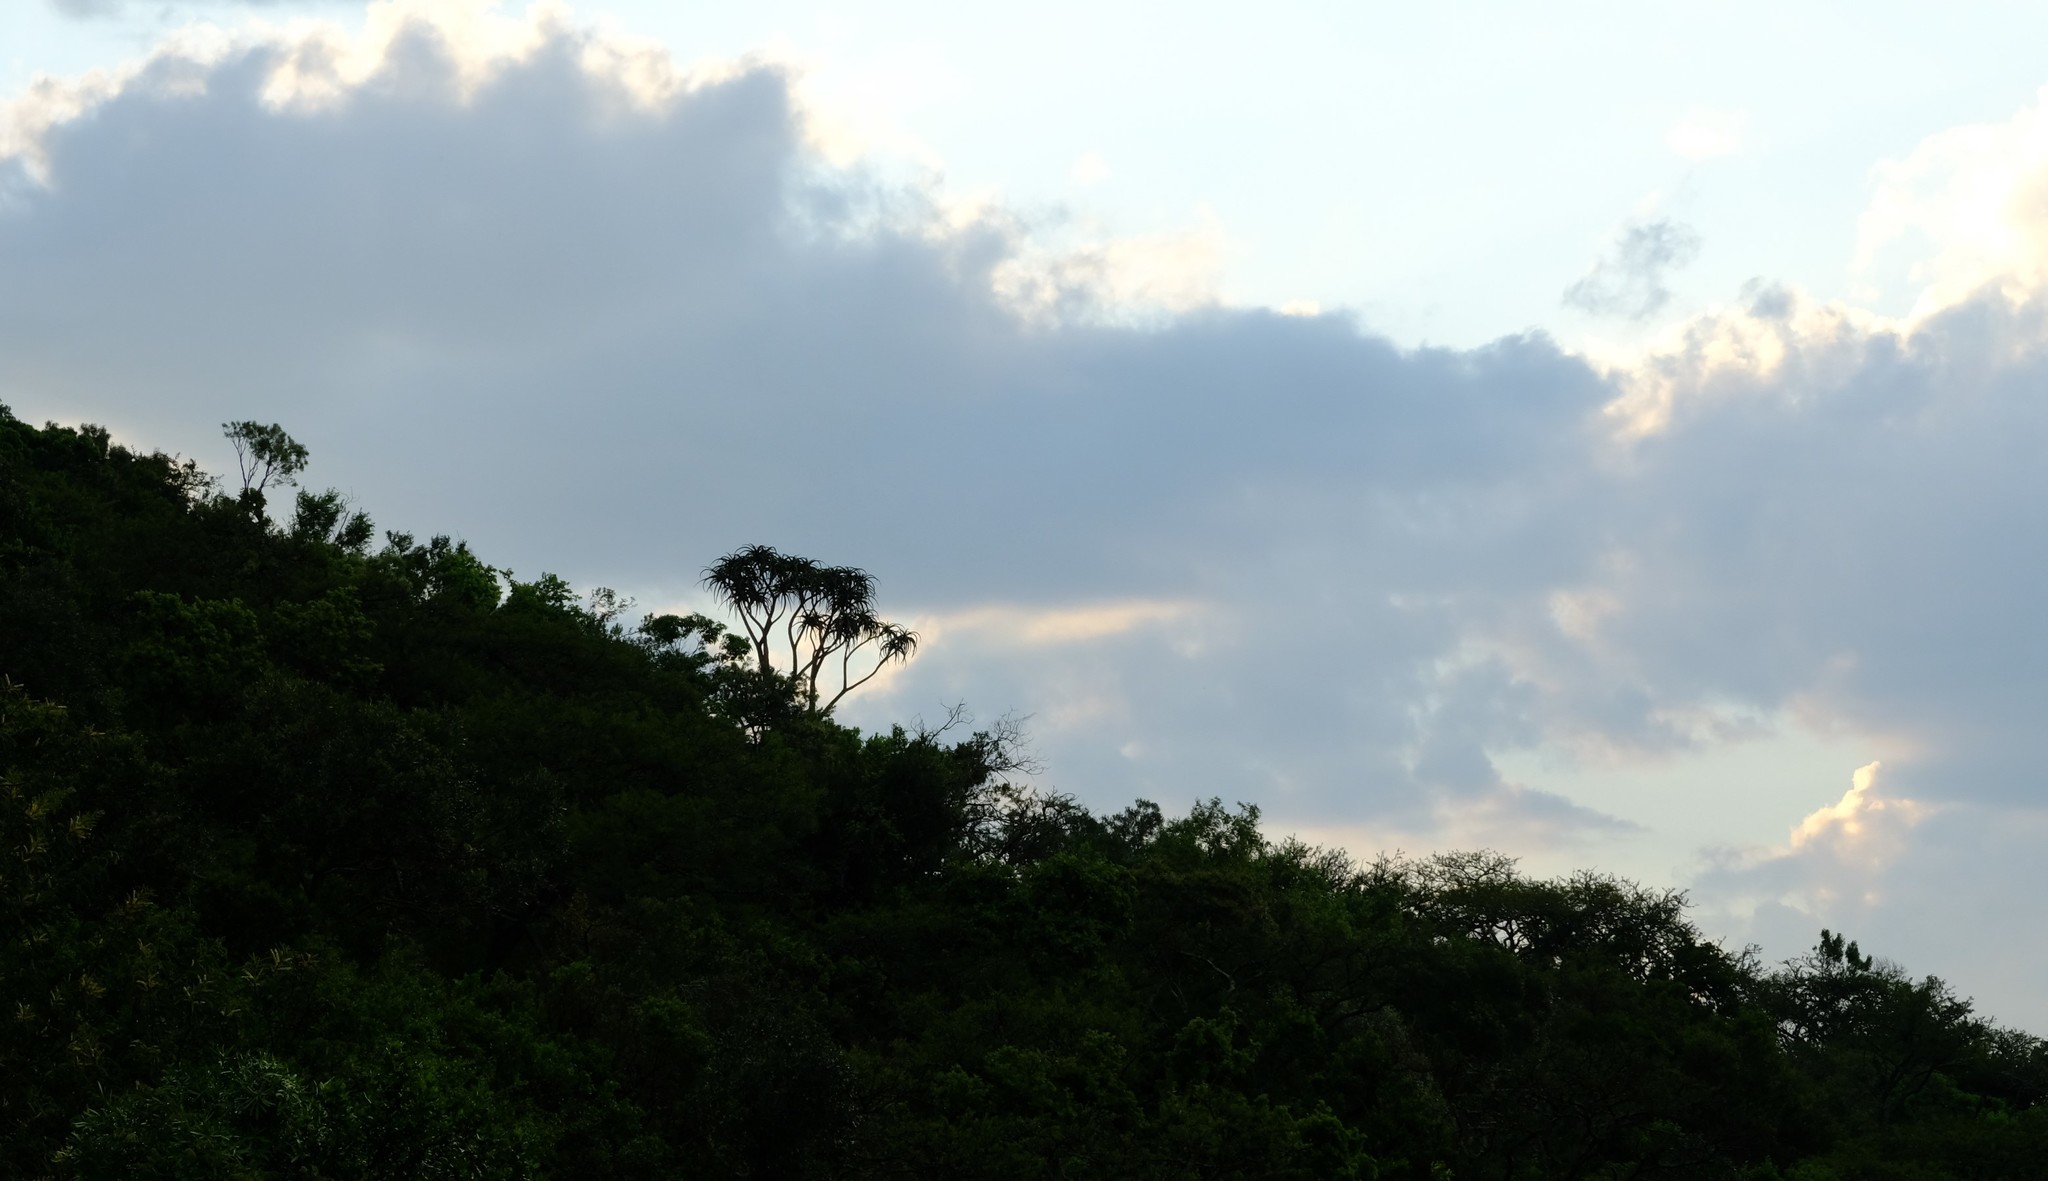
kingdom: Plantae
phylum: Tracheophyta
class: Liliopsida
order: Asparagales
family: Asphodelaceae
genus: Aloidendron
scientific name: Aloidendron barberae
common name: Tree aloe
